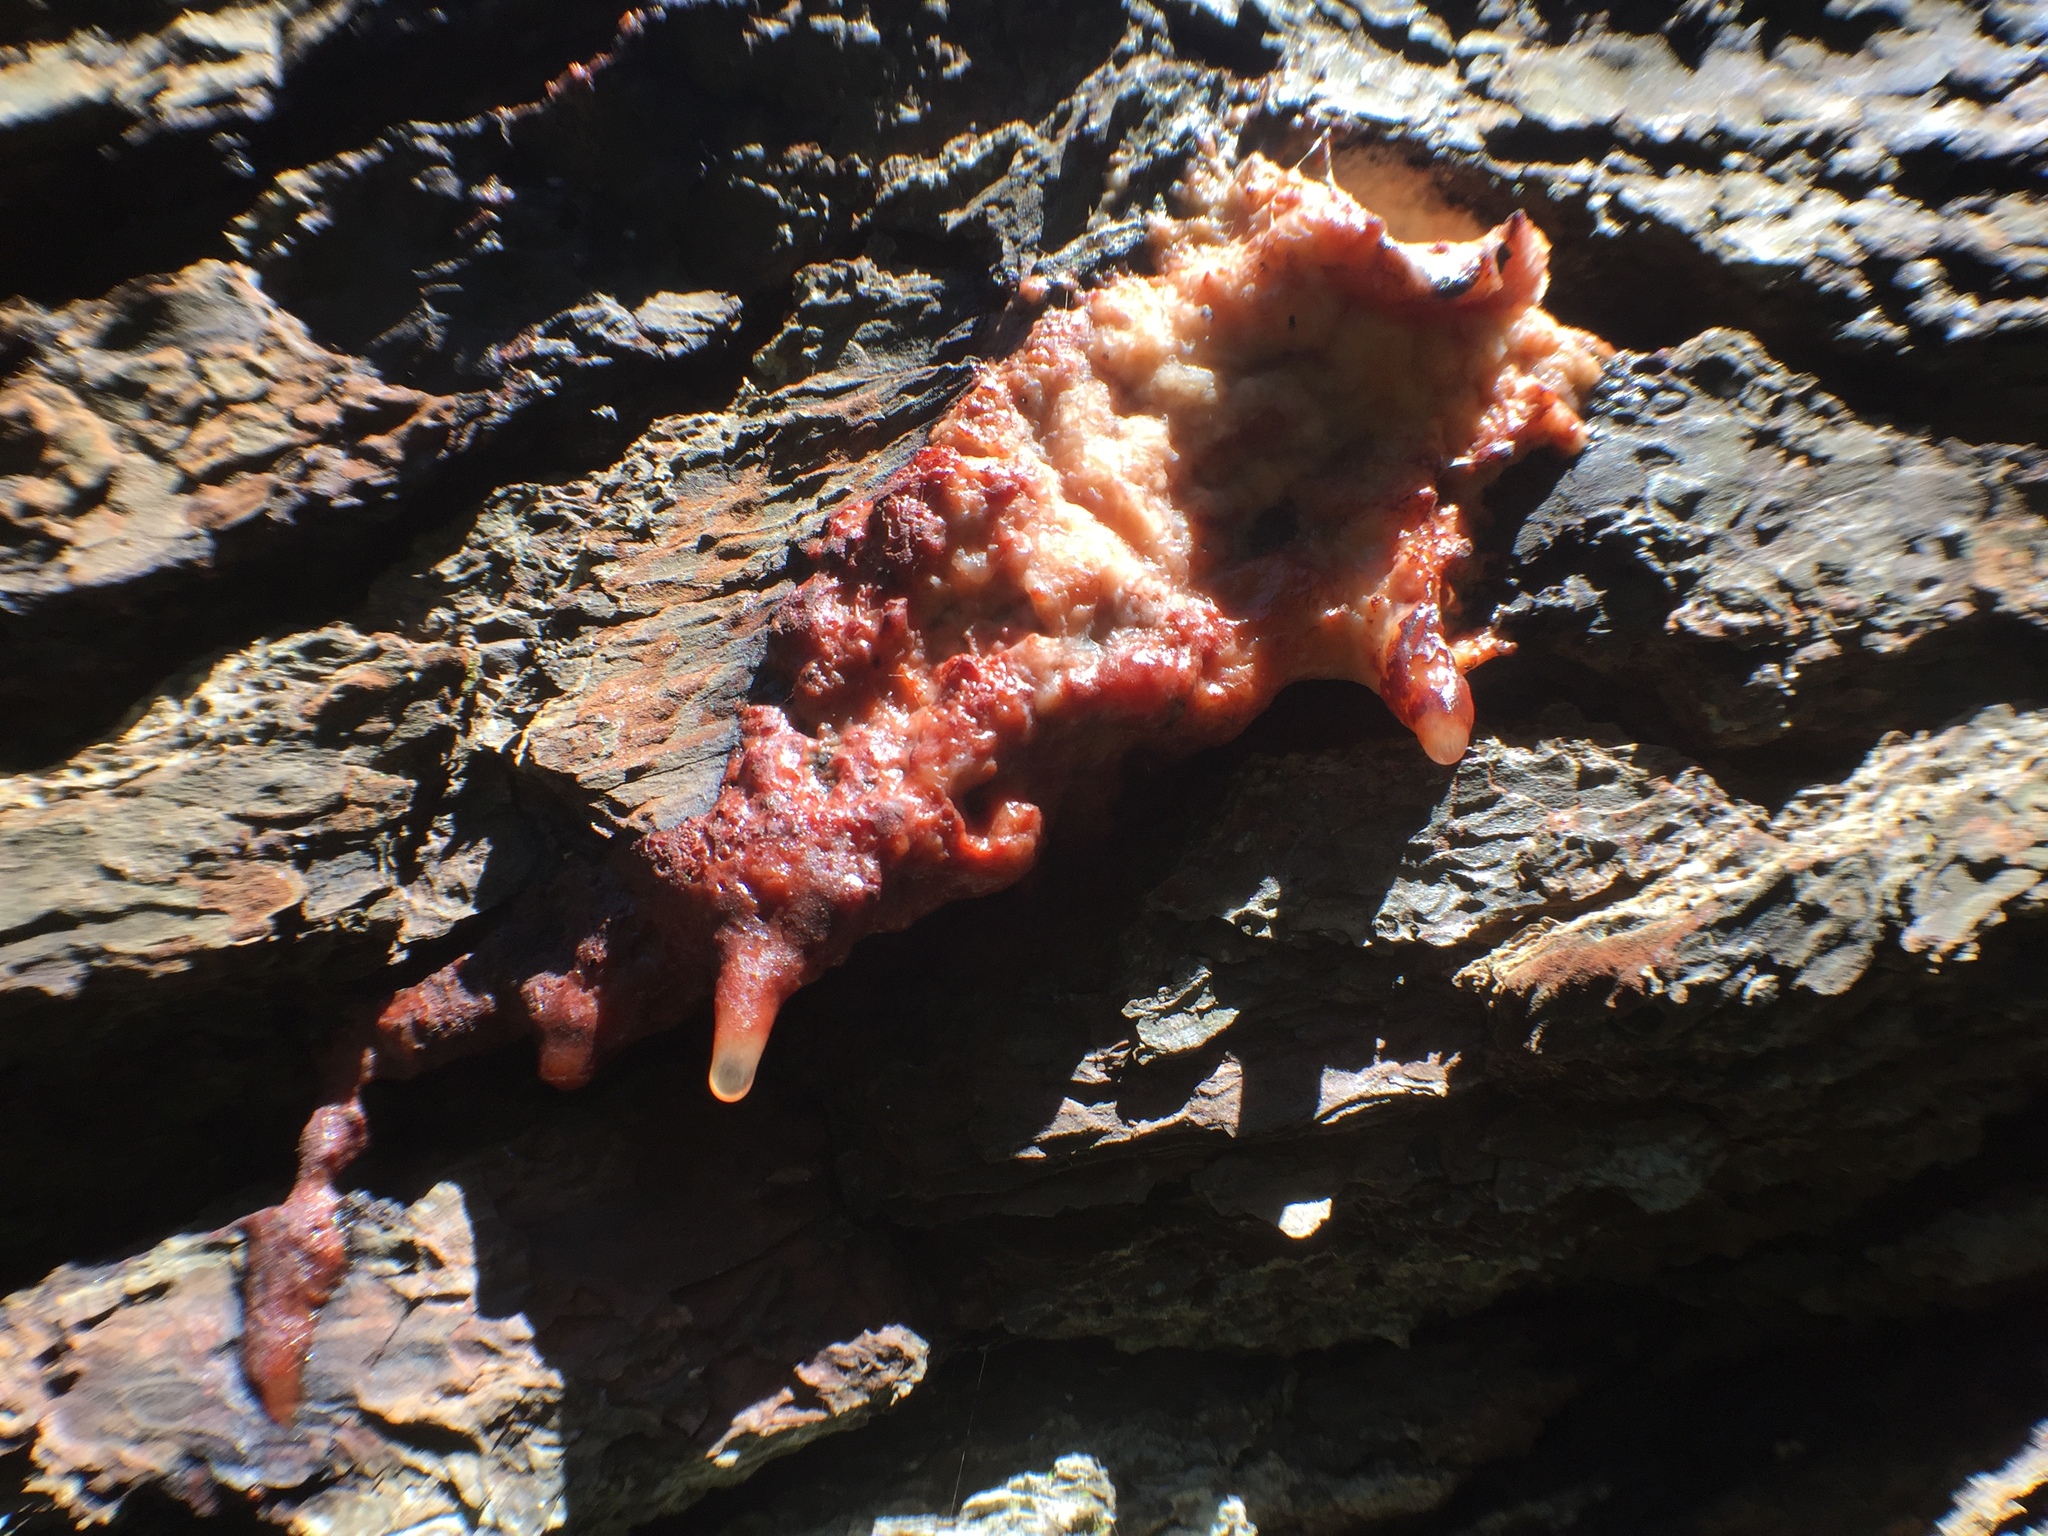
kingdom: Plantae
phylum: Tracheophyta
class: Pinopsida
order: Pinales
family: Pinaceae
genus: Pinus
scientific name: Pinus radiata
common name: Monterey pine
